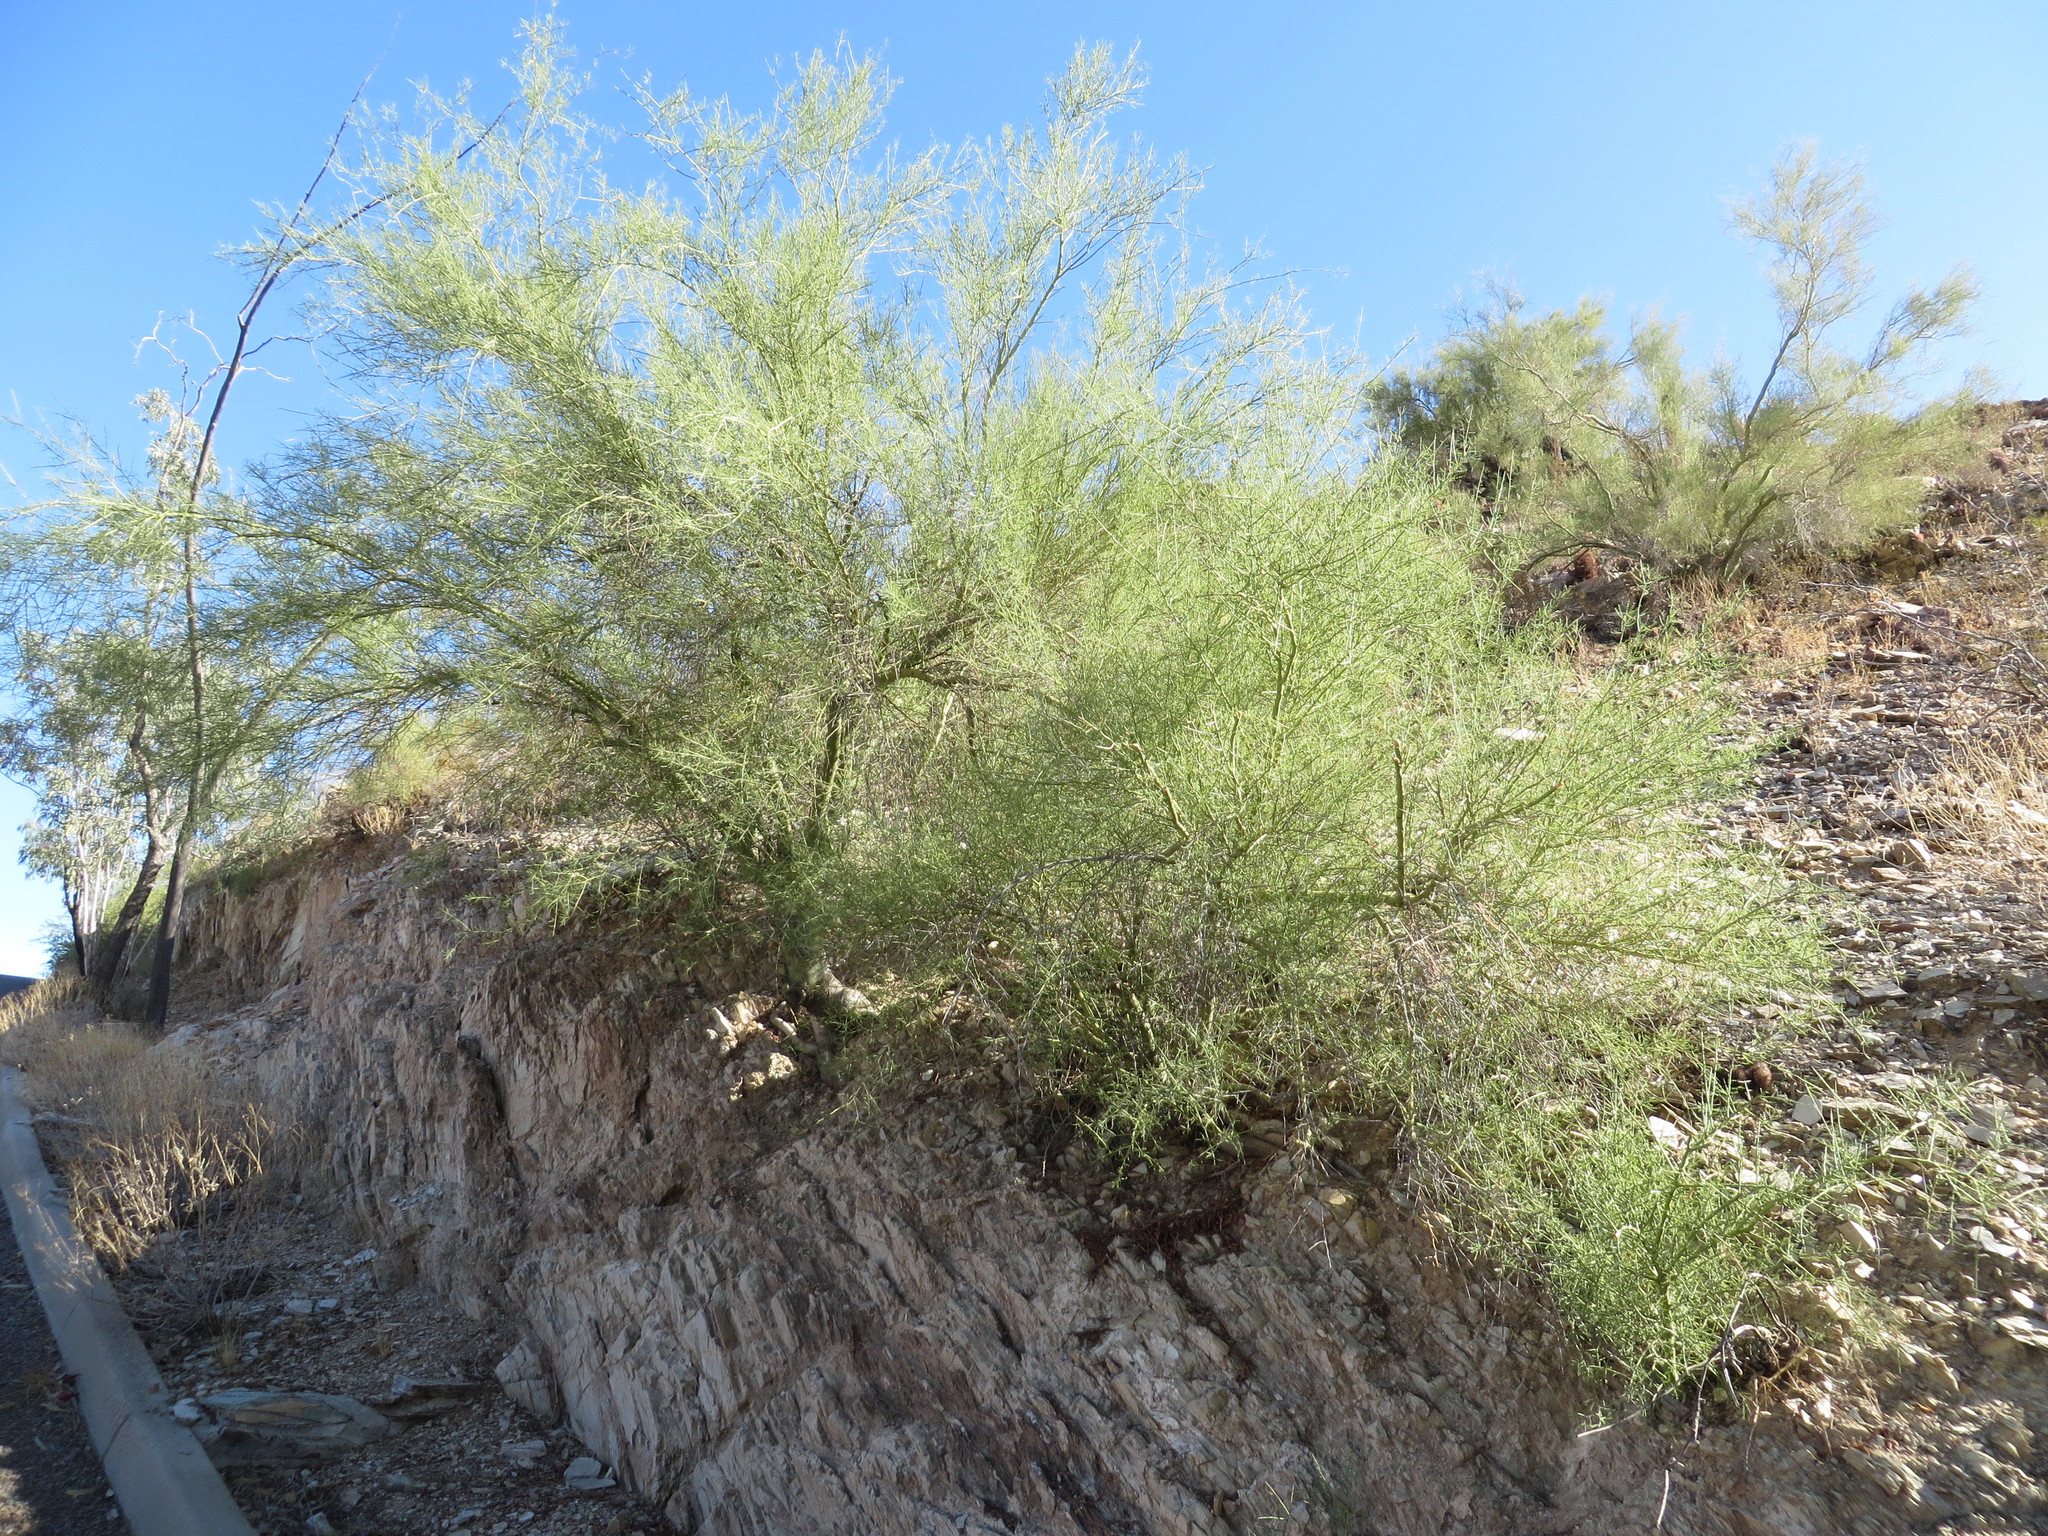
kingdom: Plantae
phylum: Tracheophyta
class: Magnoliopsida
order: Fabales
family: Fabaceae
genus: Parkinsonia
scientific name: Parkinsonia microphylla
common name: Yellow paloverde
